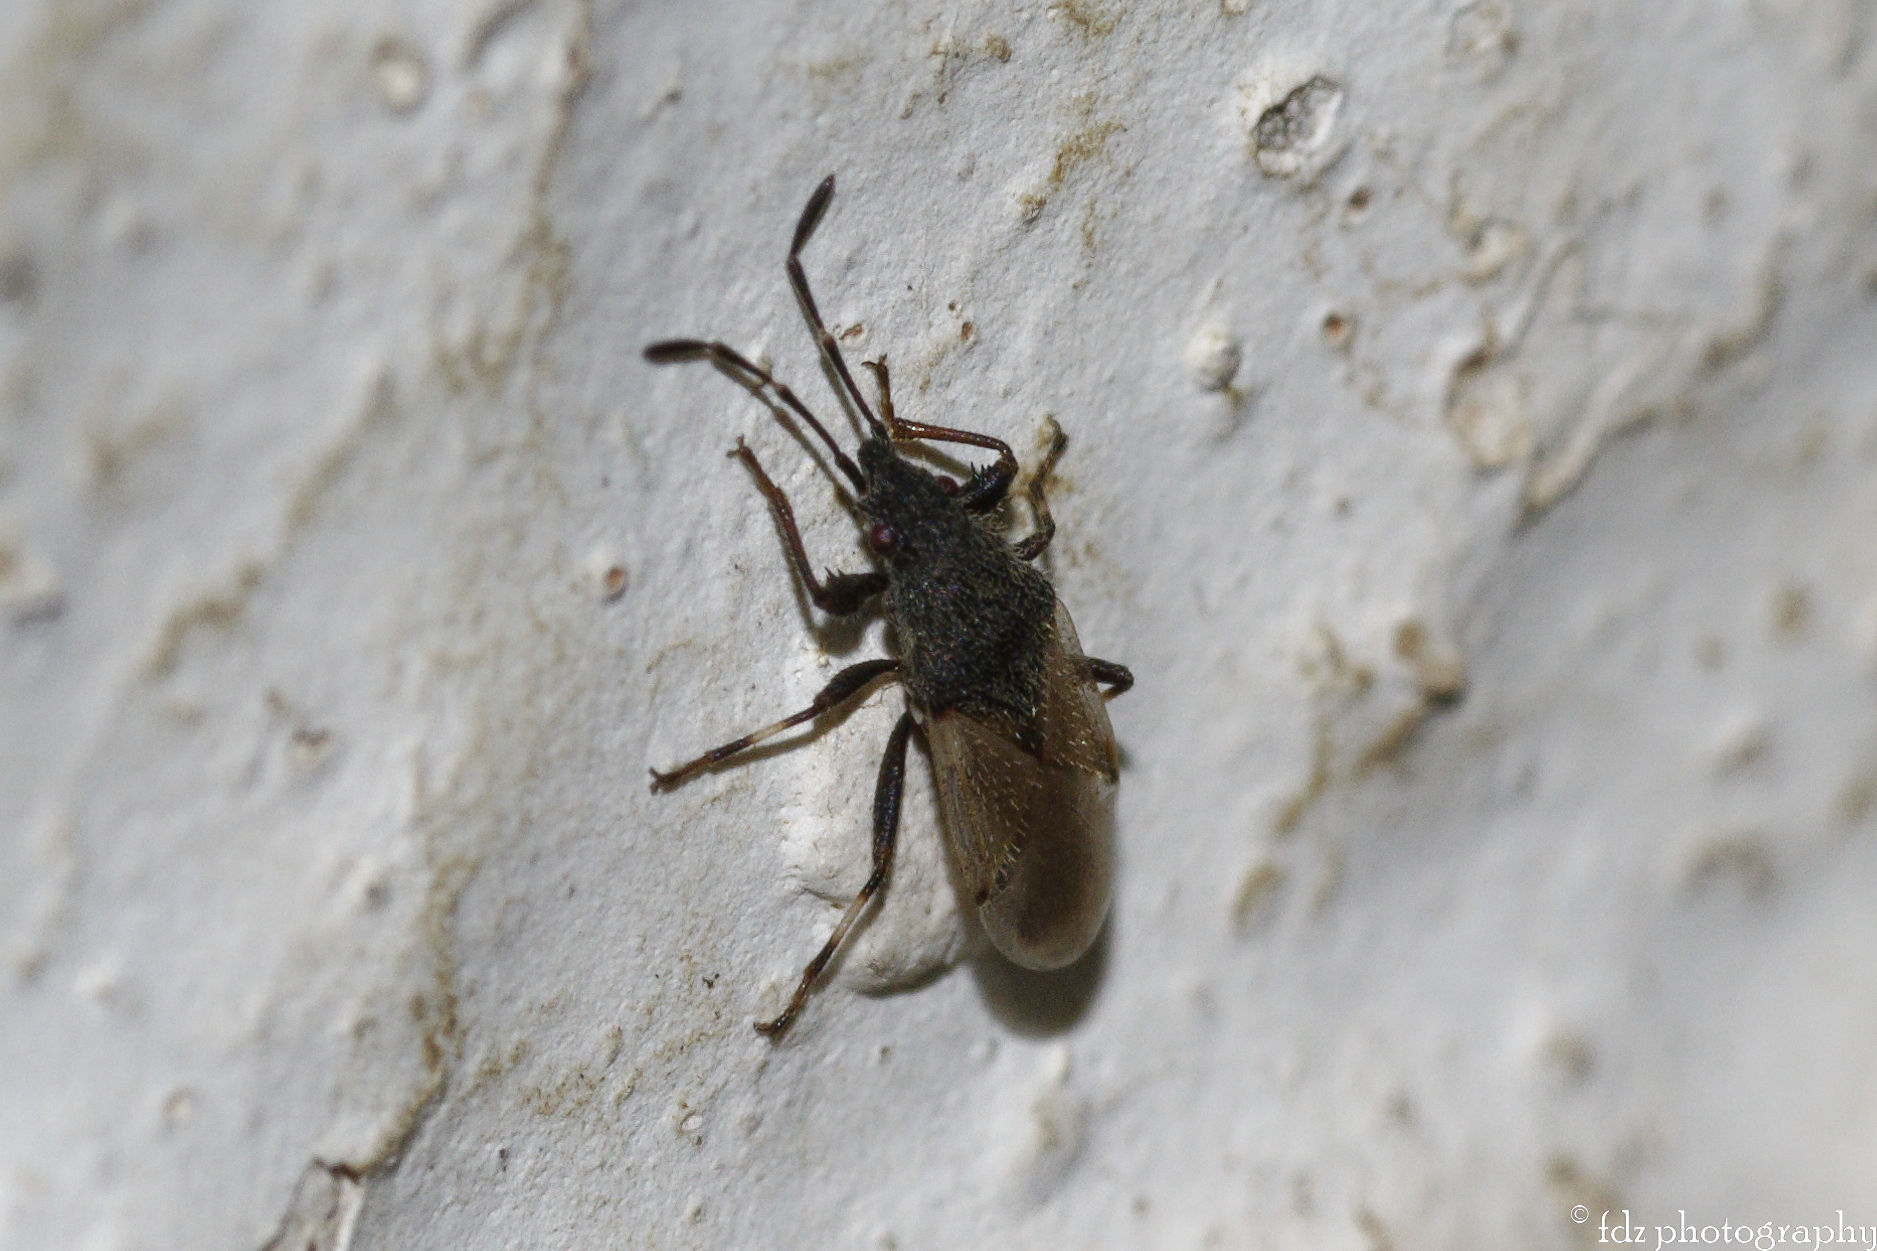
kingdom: Animalia
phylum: Arthropoda
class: Insecta
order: Hemiptera
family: Oxycarenidae
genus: Oxycarenus
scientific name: Oxycarenus hyalinipennis
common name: Cotton seed bug
